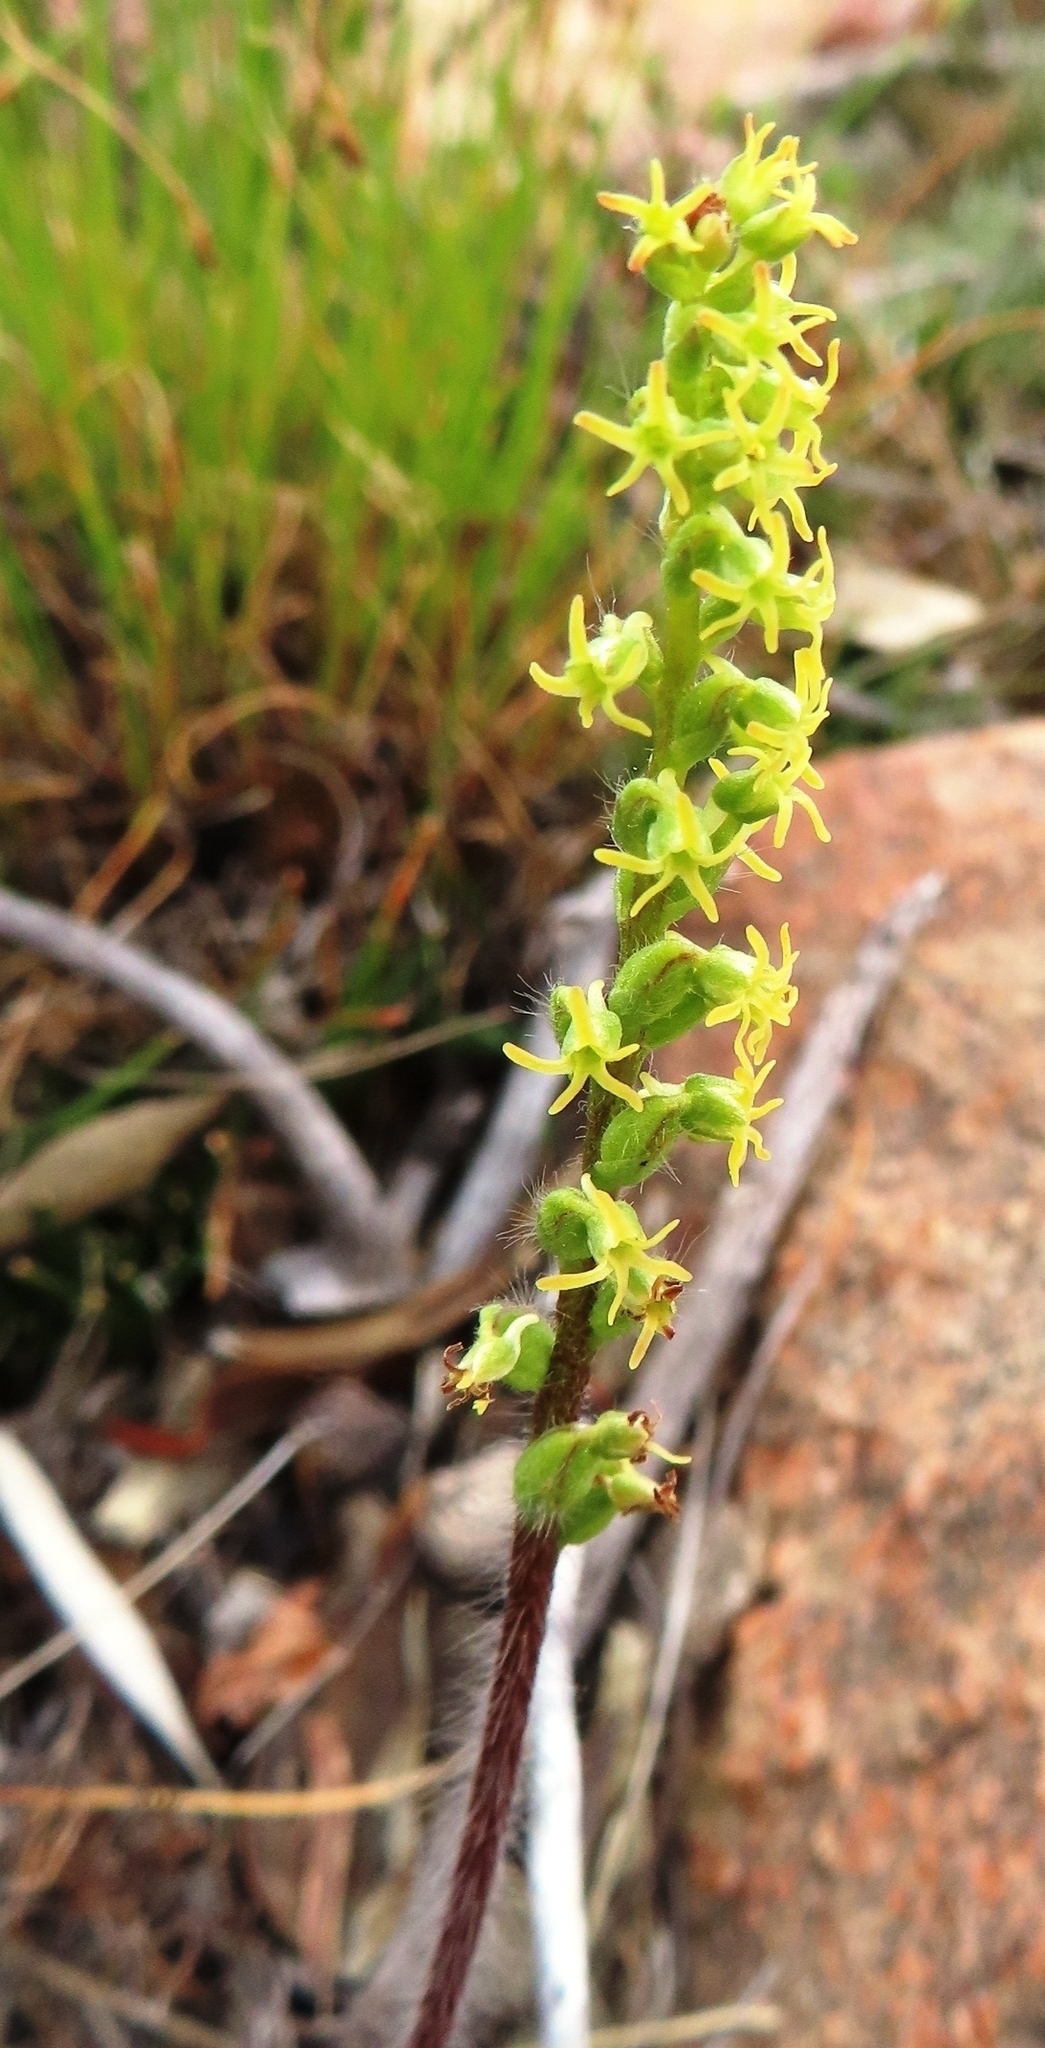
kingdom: Plantae
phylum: Tracheophyta
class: Liliopsida
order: Asparagales
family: Orchidaceae
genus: Holothrix
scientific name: Holothrix villosa
